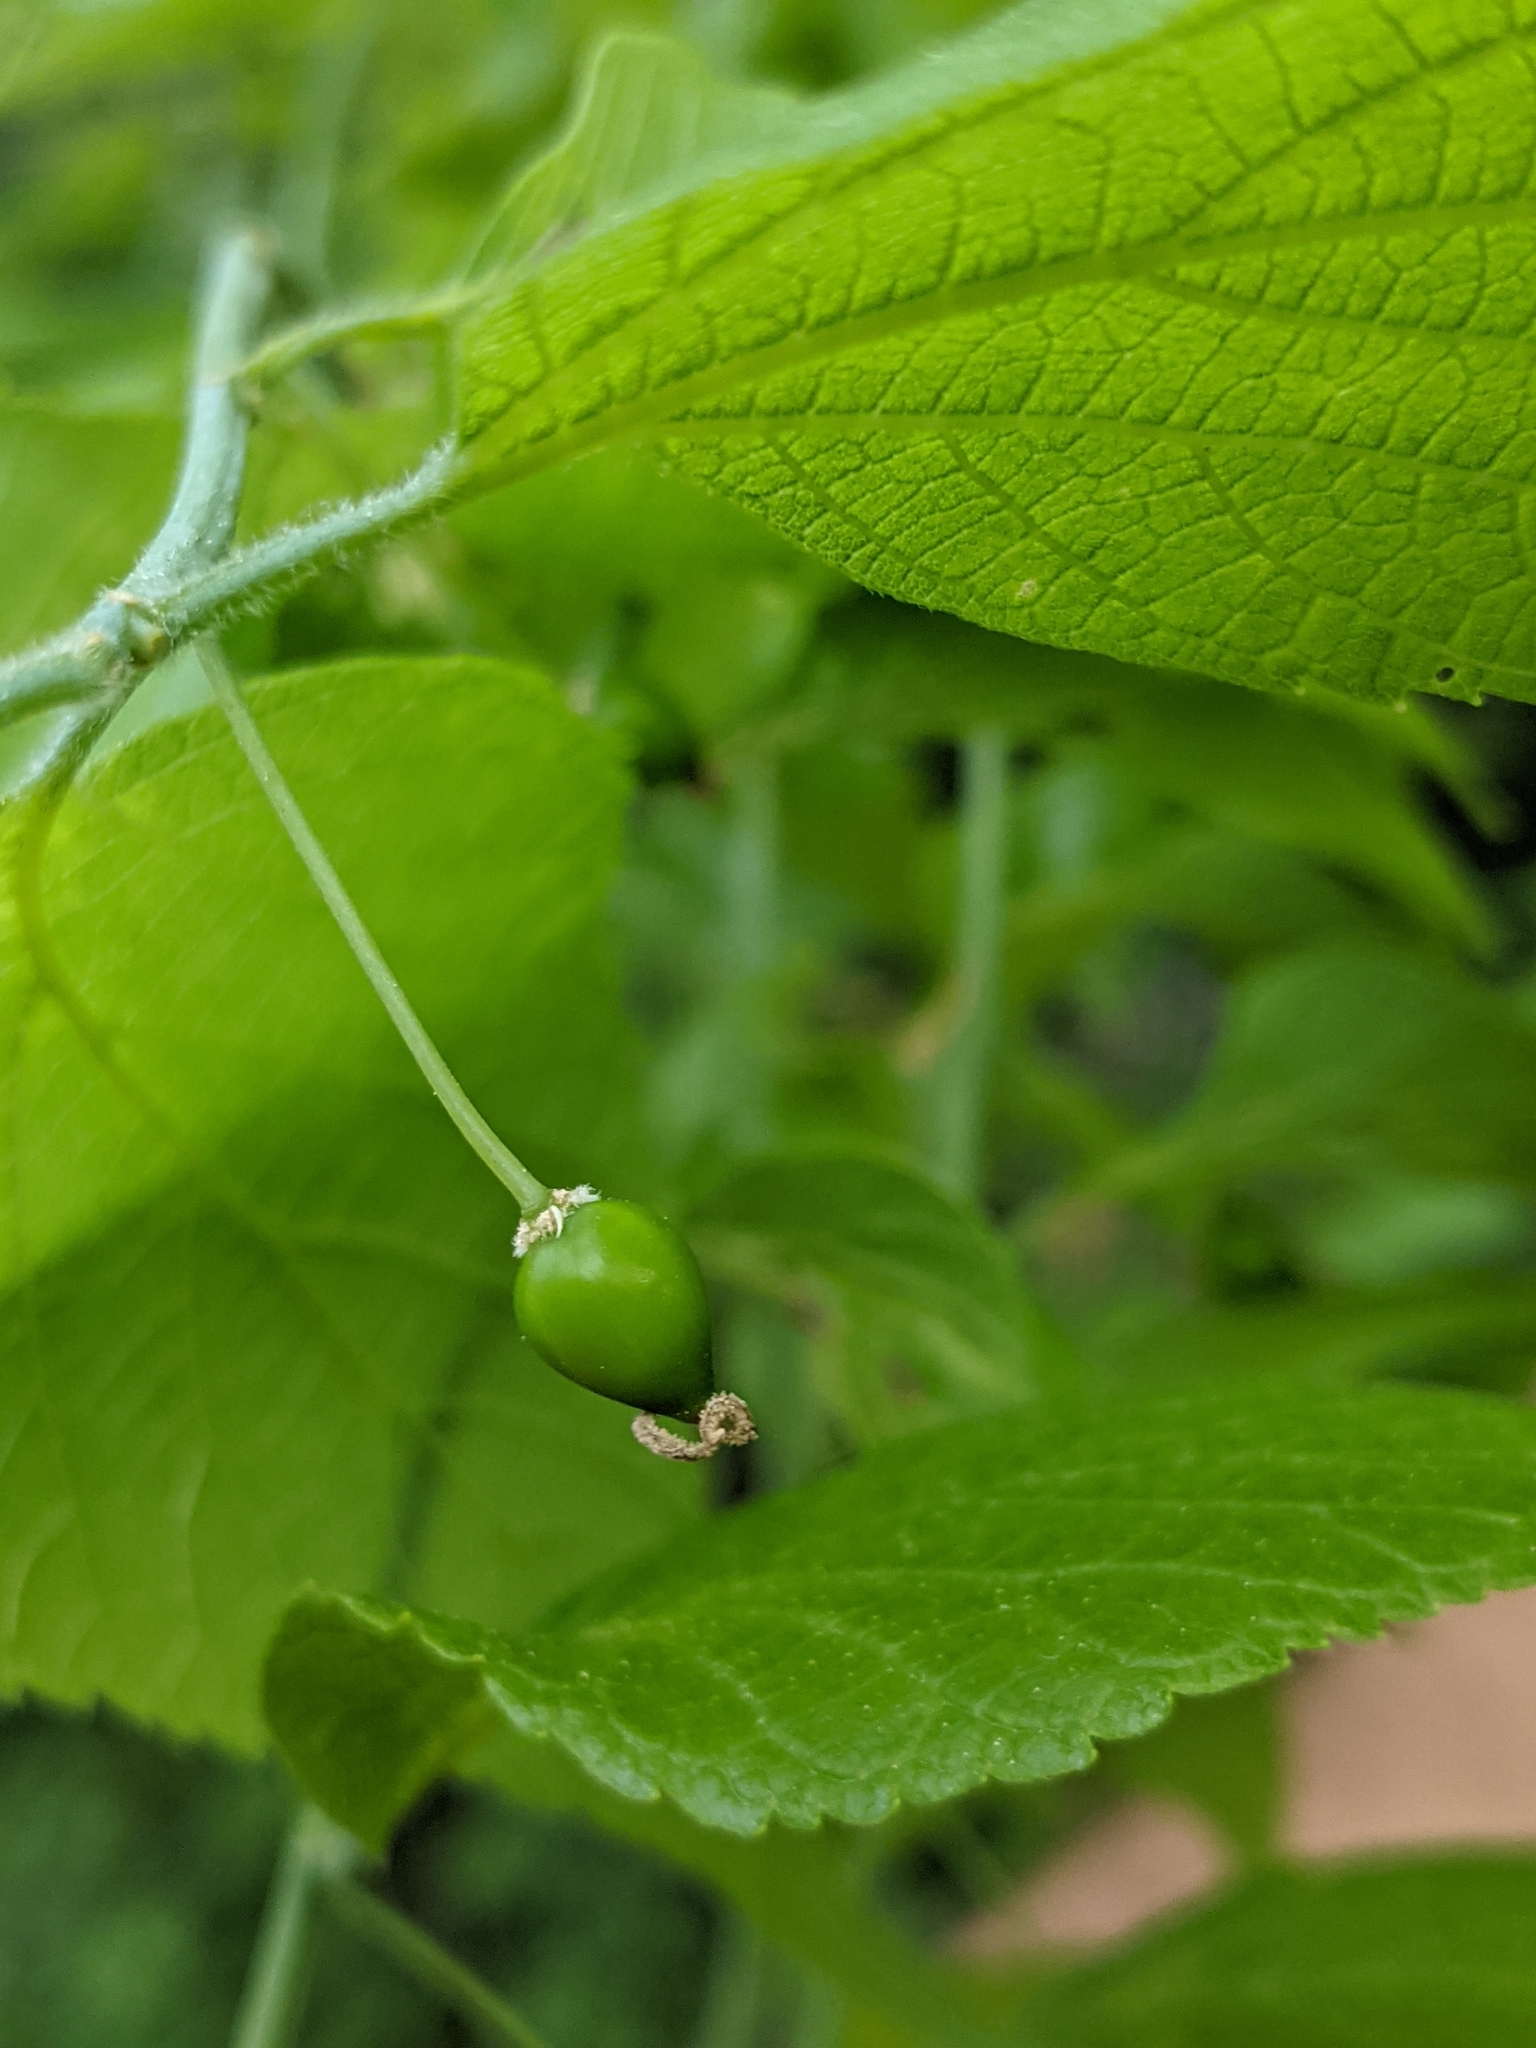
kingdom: Plantae
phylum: Tracheophyta
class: Magnoliopsida
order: Rosales
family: Cannabaceae
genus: Celtis
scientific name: Celtis occidentalis
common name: Common hackberry
